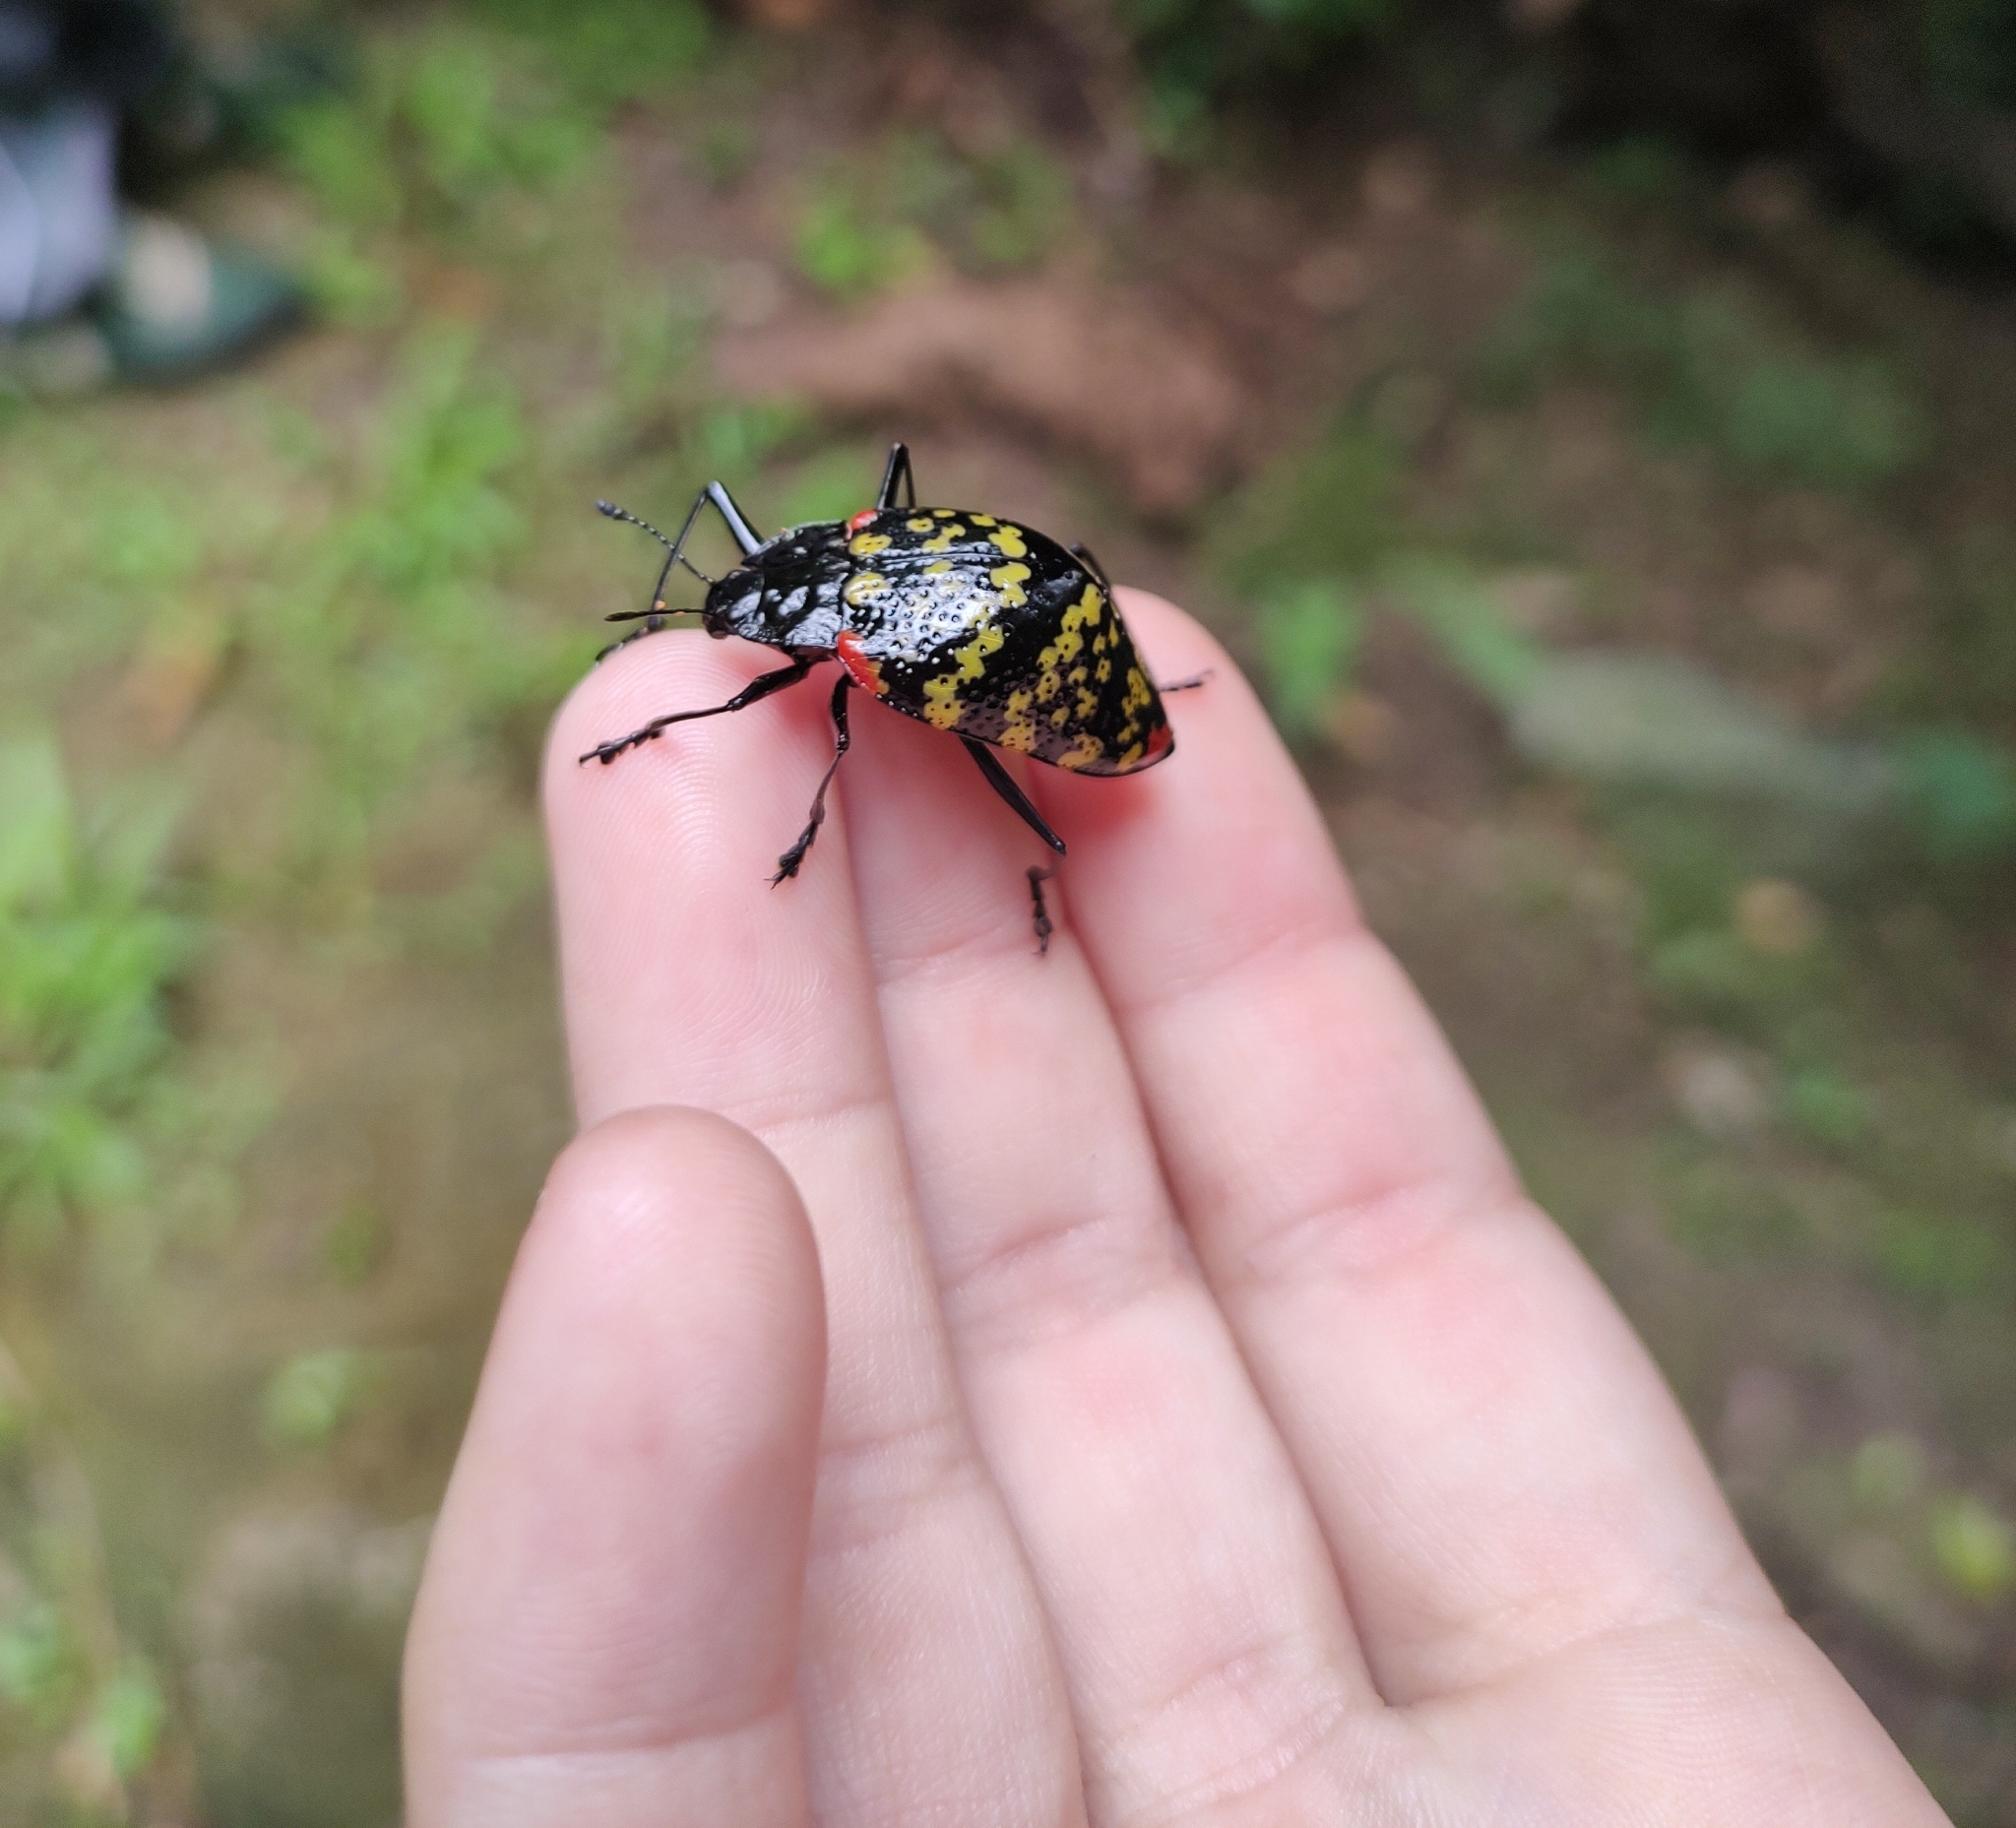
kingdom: Animalia
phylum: Arthropoda
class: Insecta
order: Coleoptera
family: Erotylidae
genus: Erotylus
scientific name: Erotylus histrio
